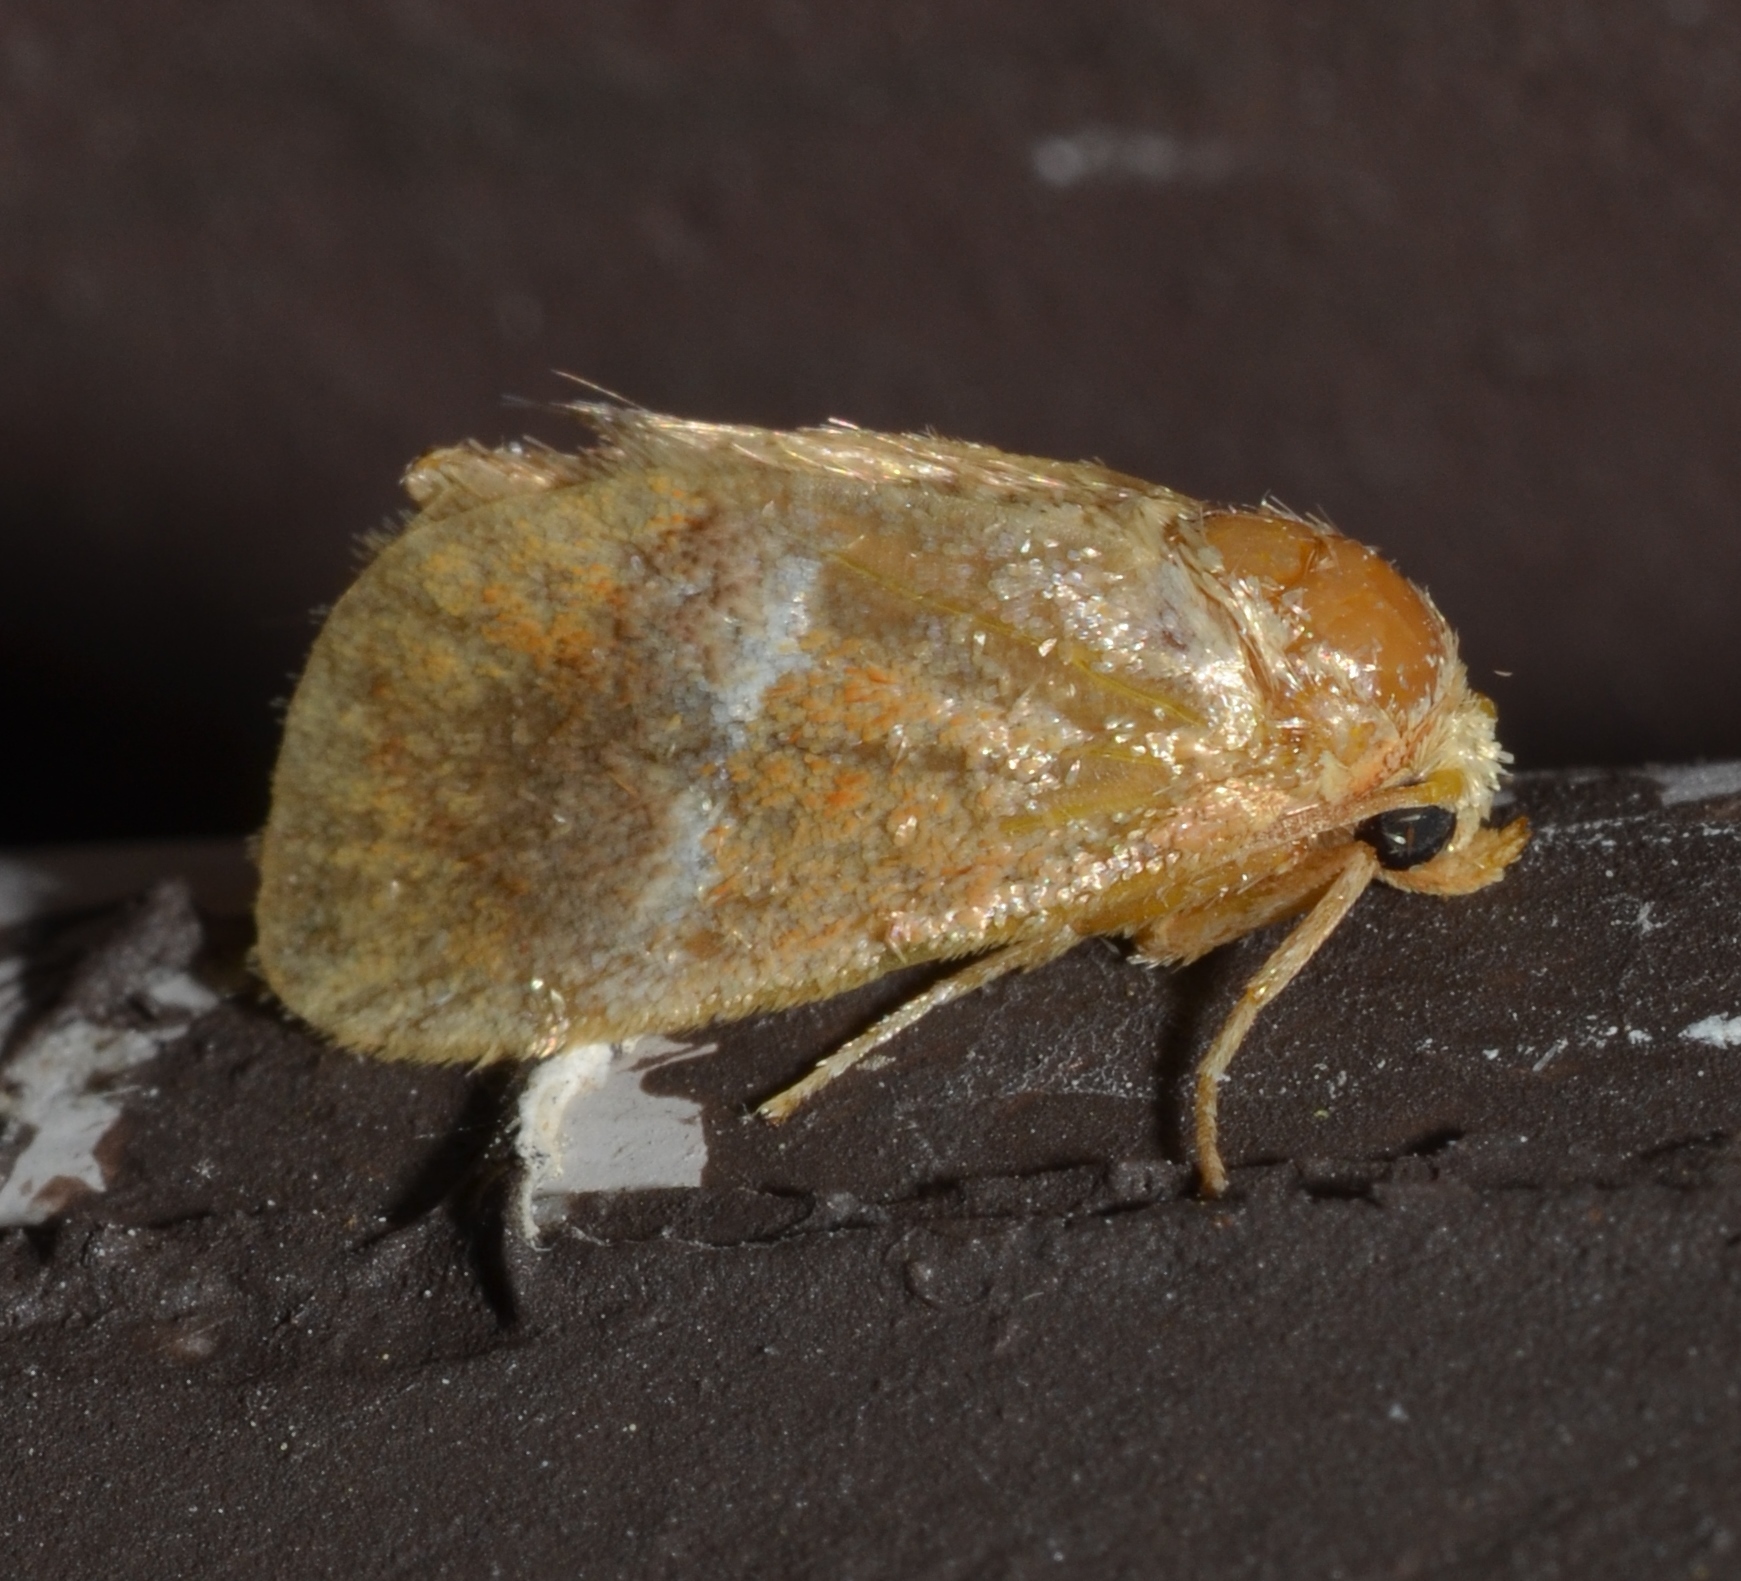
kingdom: Animalia
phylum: Arthropoda
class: Insecta
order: Lepidoptera
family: Limacodidae
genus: Lithacodes
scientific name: Lithacodes fasciola
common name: Yellow-shouldered slug moth
